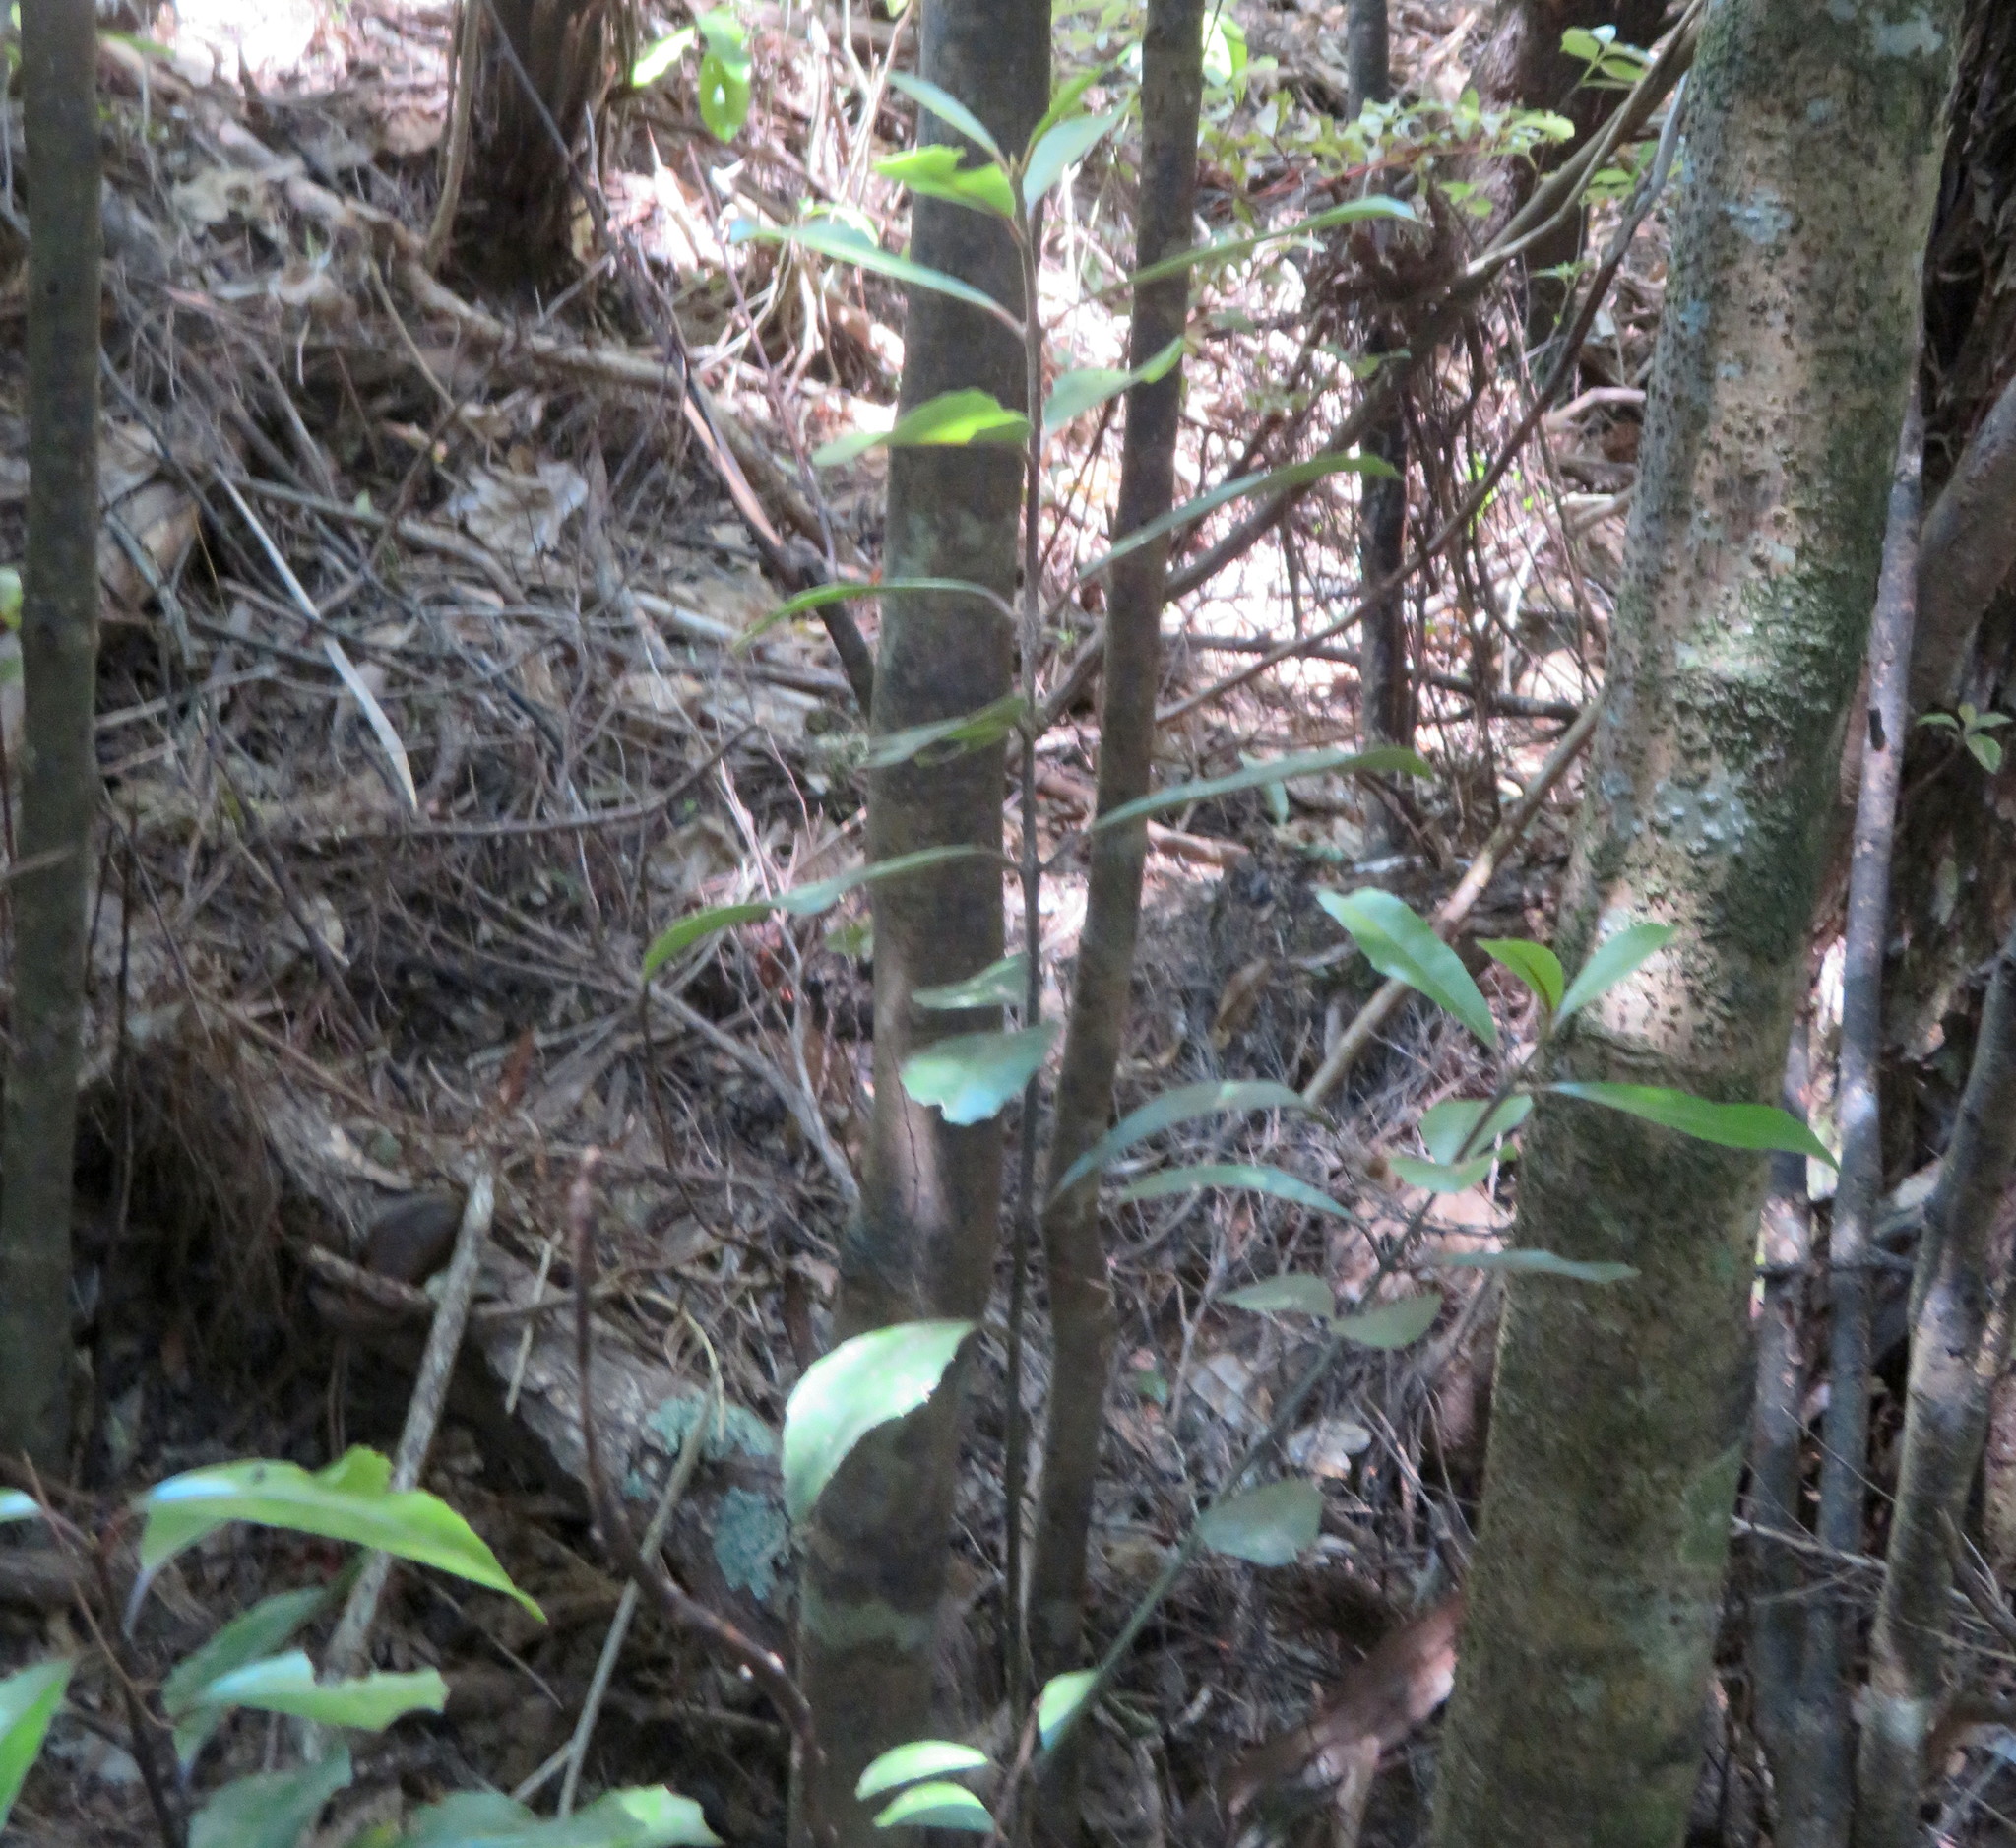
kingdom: Plantae
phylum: Tracheophyta
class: Magnoliopsida
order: Laurales
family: Monimiaceae
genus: Hedycarya
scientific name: Hedycarya arborea
